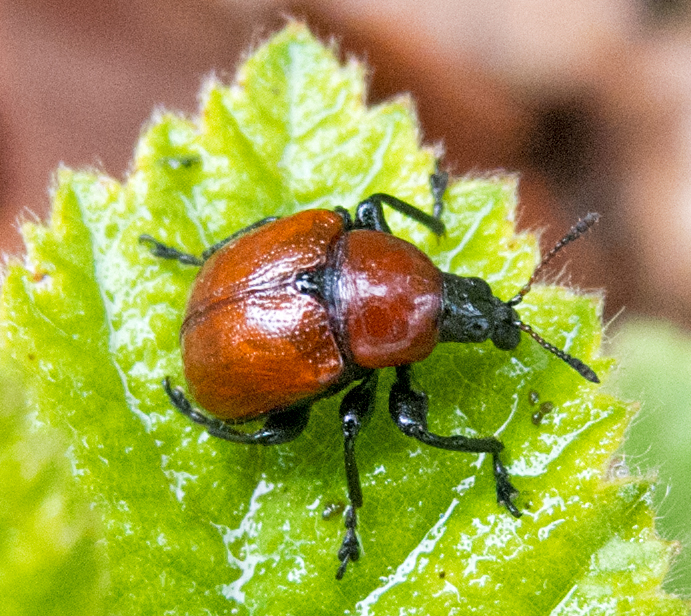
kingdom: Animalia
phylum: Arthropoda
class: Insecta
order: Coleoptera
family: Attelabidae
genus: Attelabus
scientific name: Attelabus nitens
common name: Oak leaf-roller
